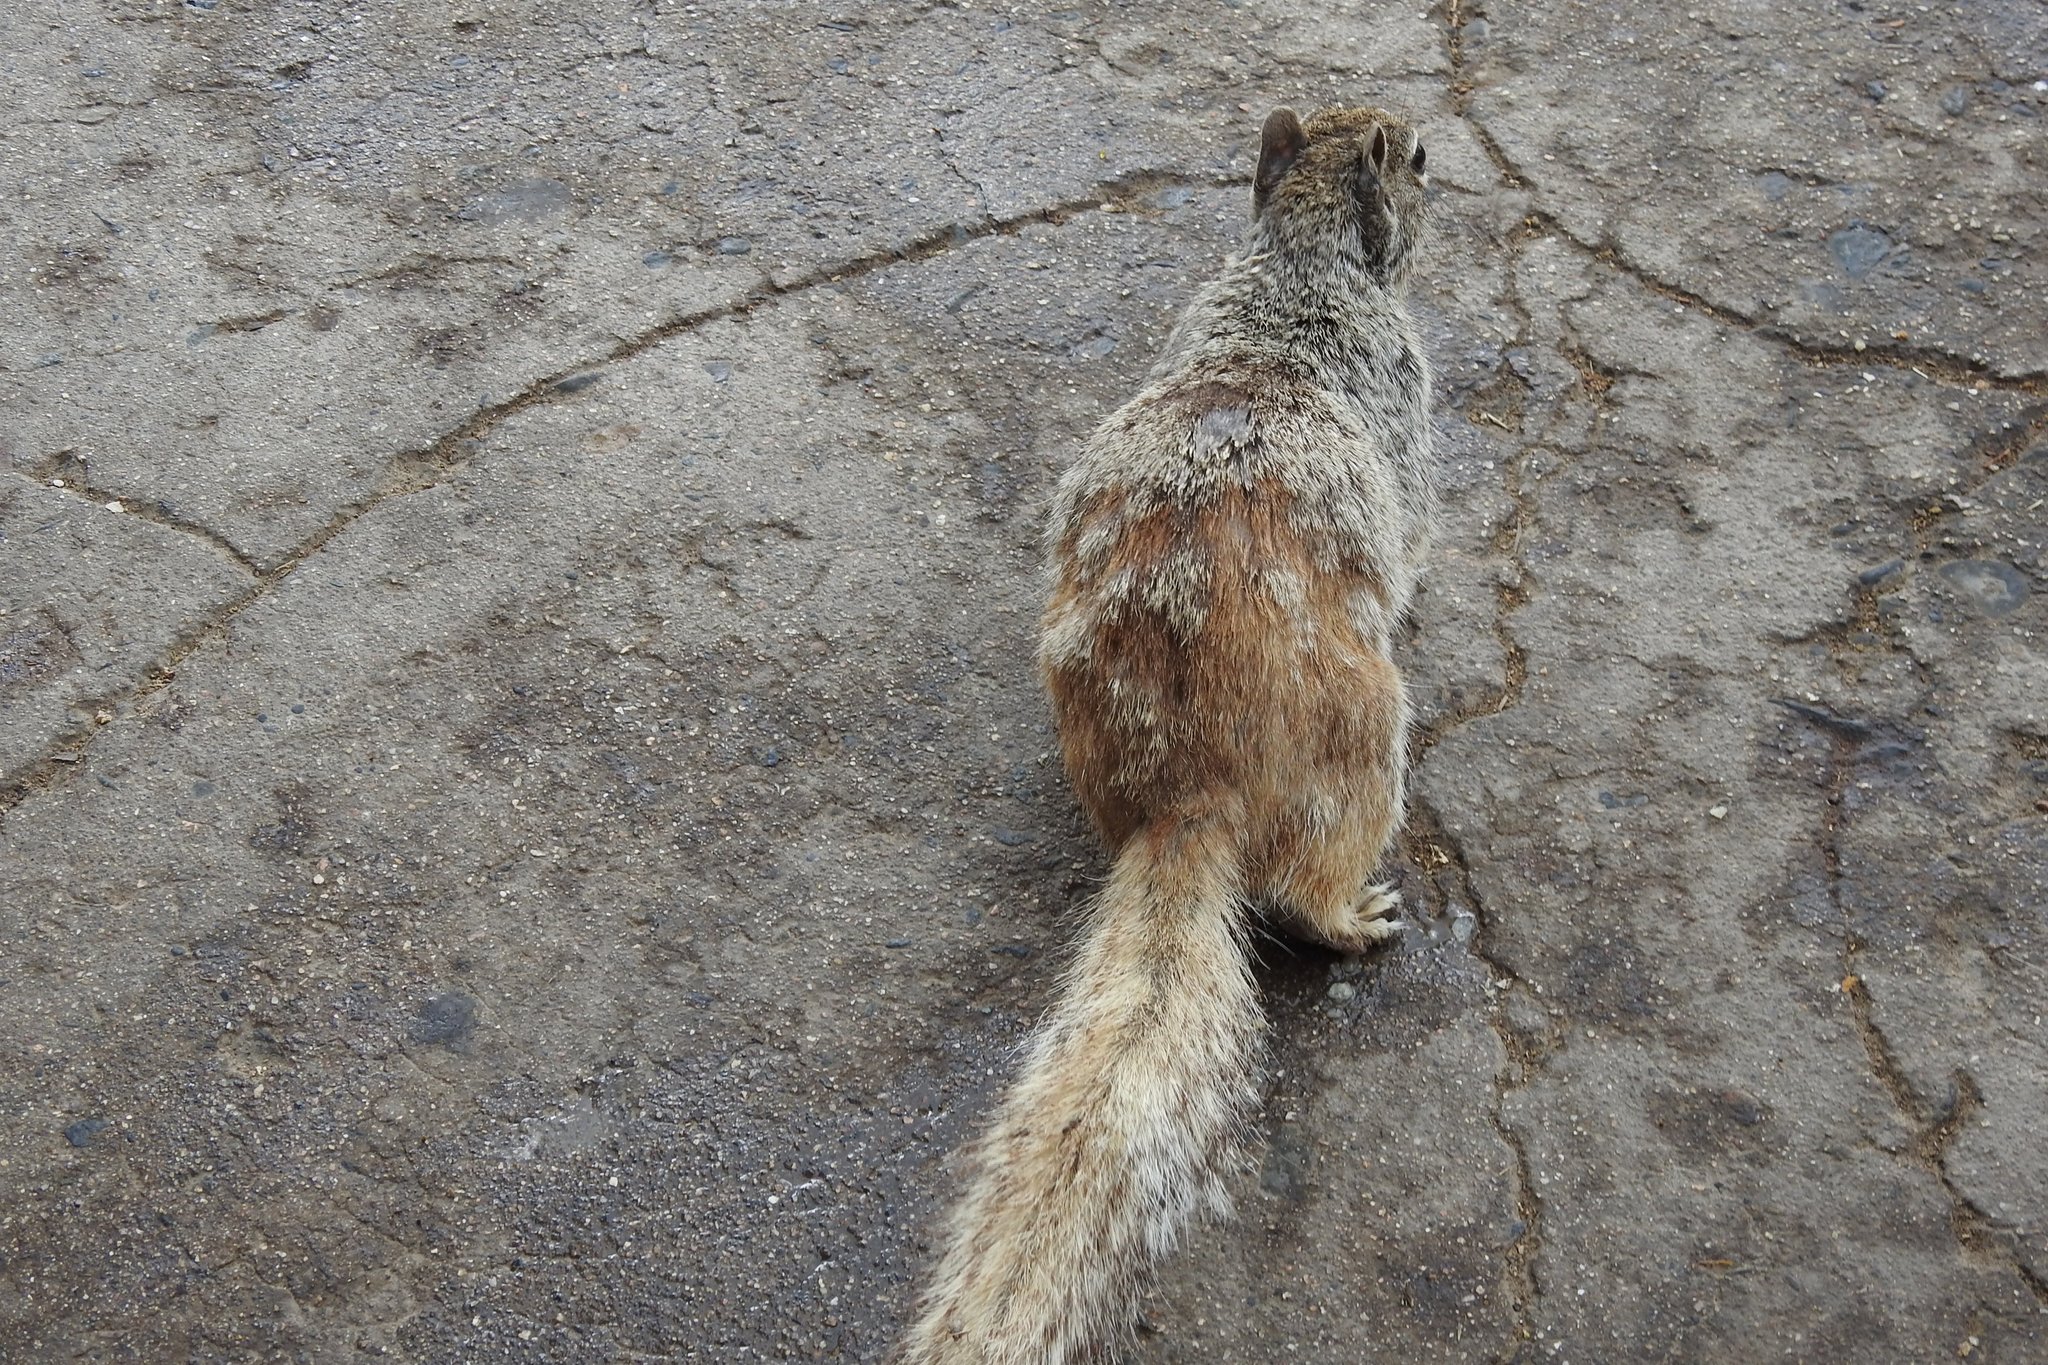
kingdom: Animalia
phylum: Chordata
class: Mammalia
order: Rodentia
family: Sciuridae
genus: Otospermophilus
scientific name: Otospermophilus variegatus
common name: Rock squirrel
